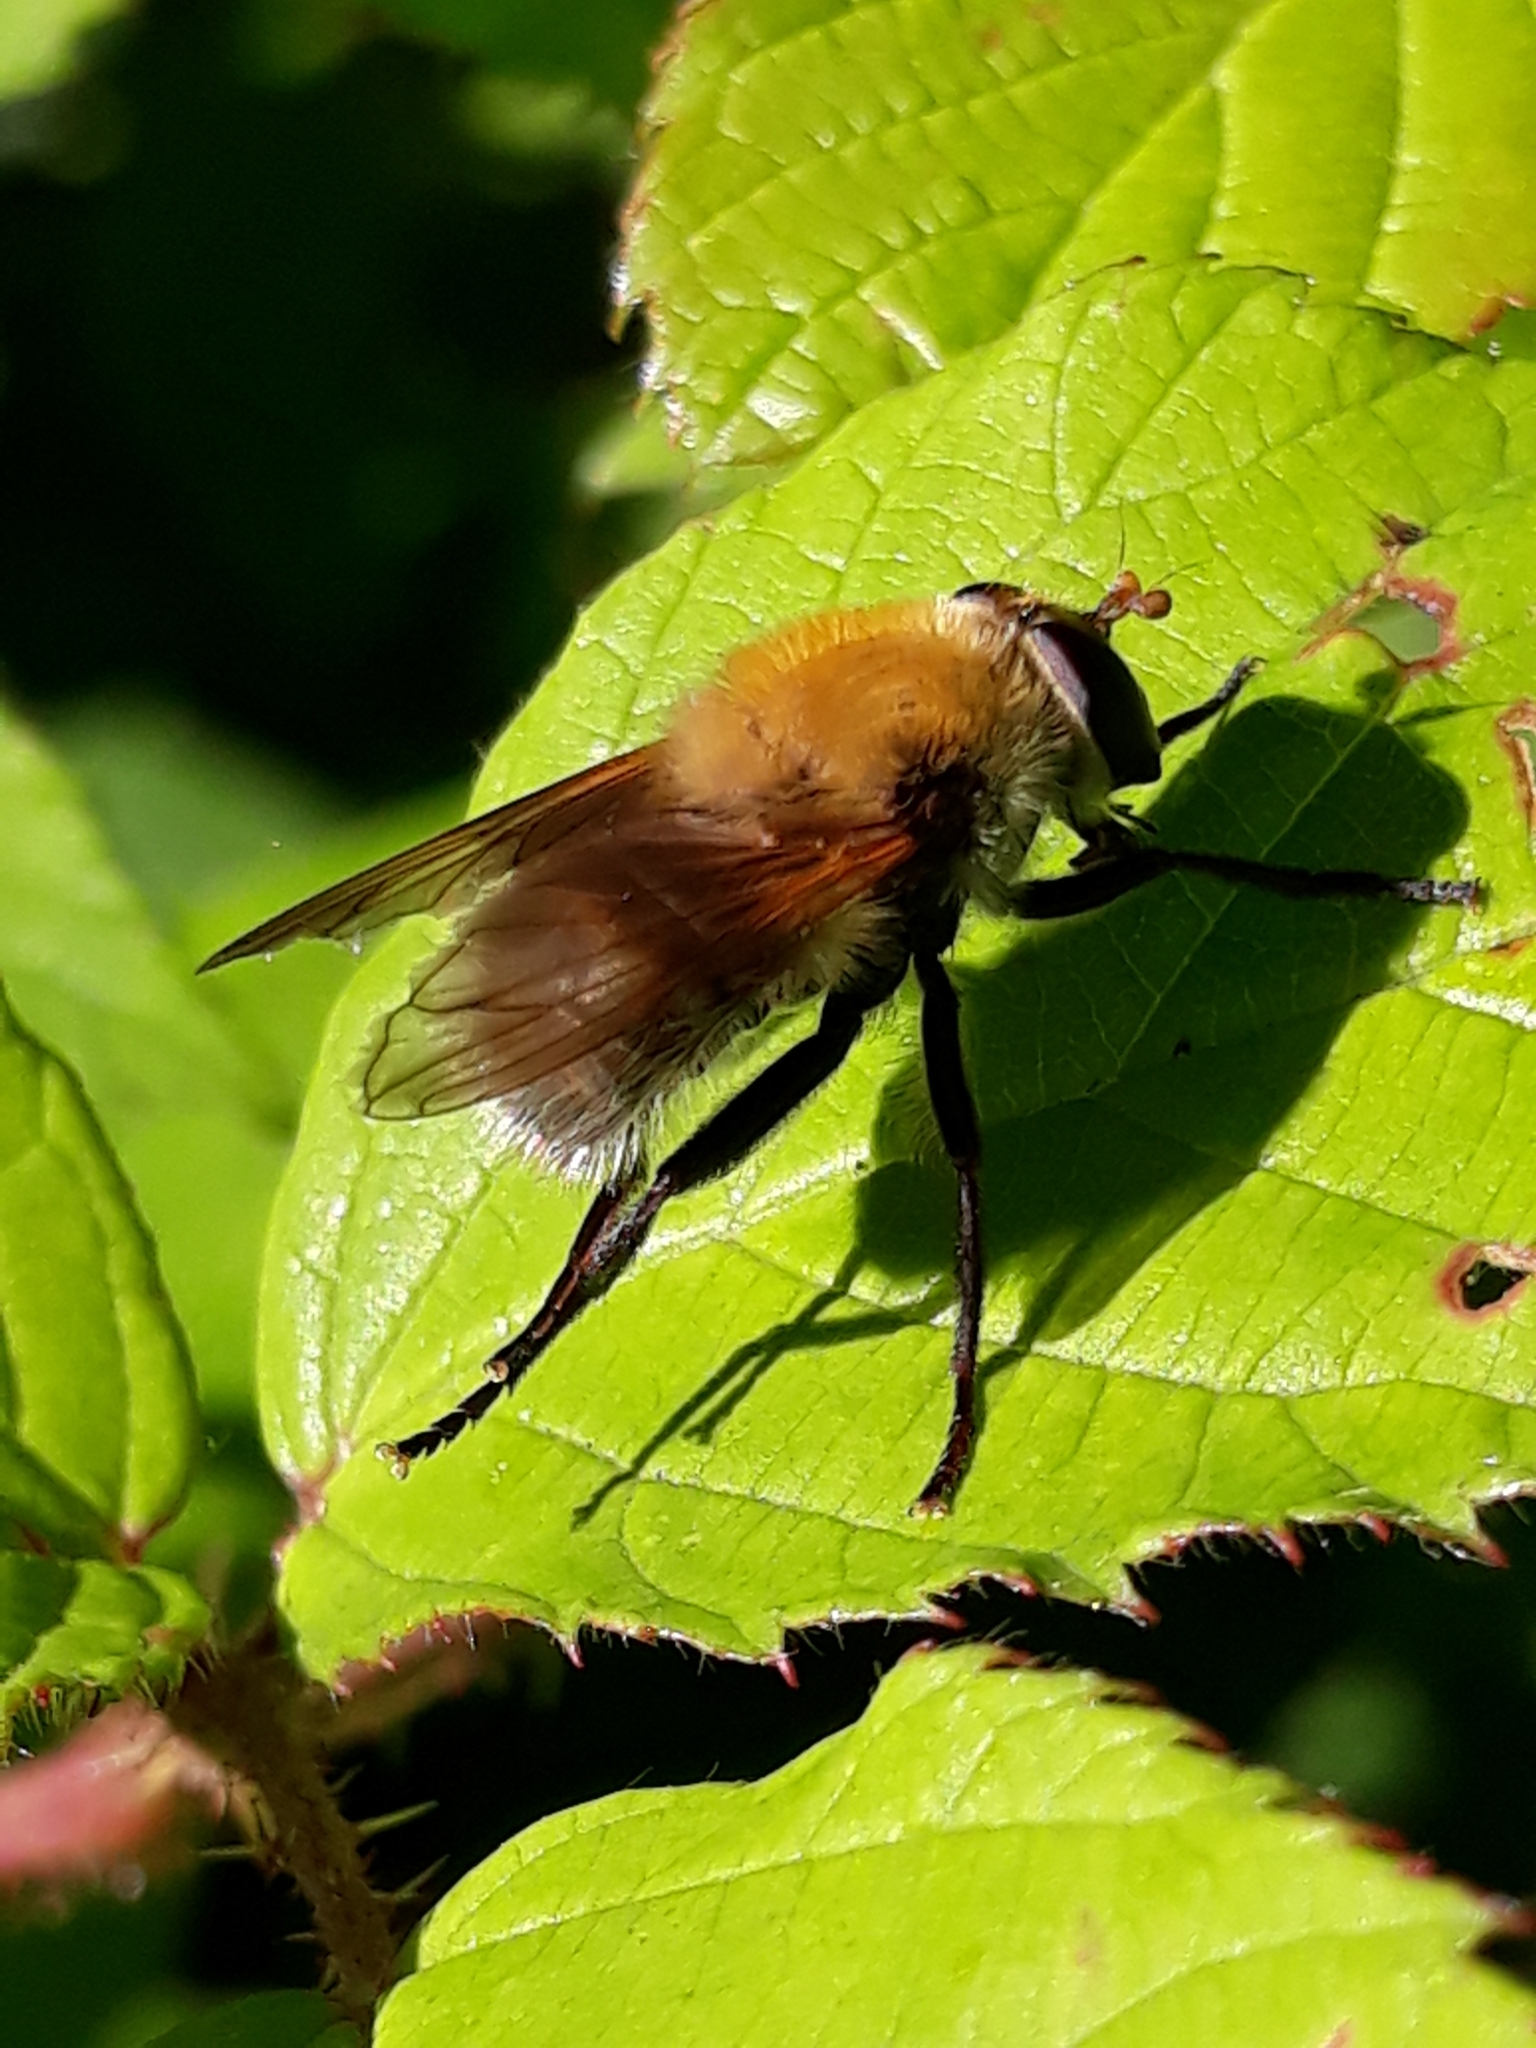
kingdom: Animalia
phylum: Arthropoda
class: Insecta
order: Diptera
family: Syrphidae
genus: Criorhina
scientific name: Criorhina berberina
